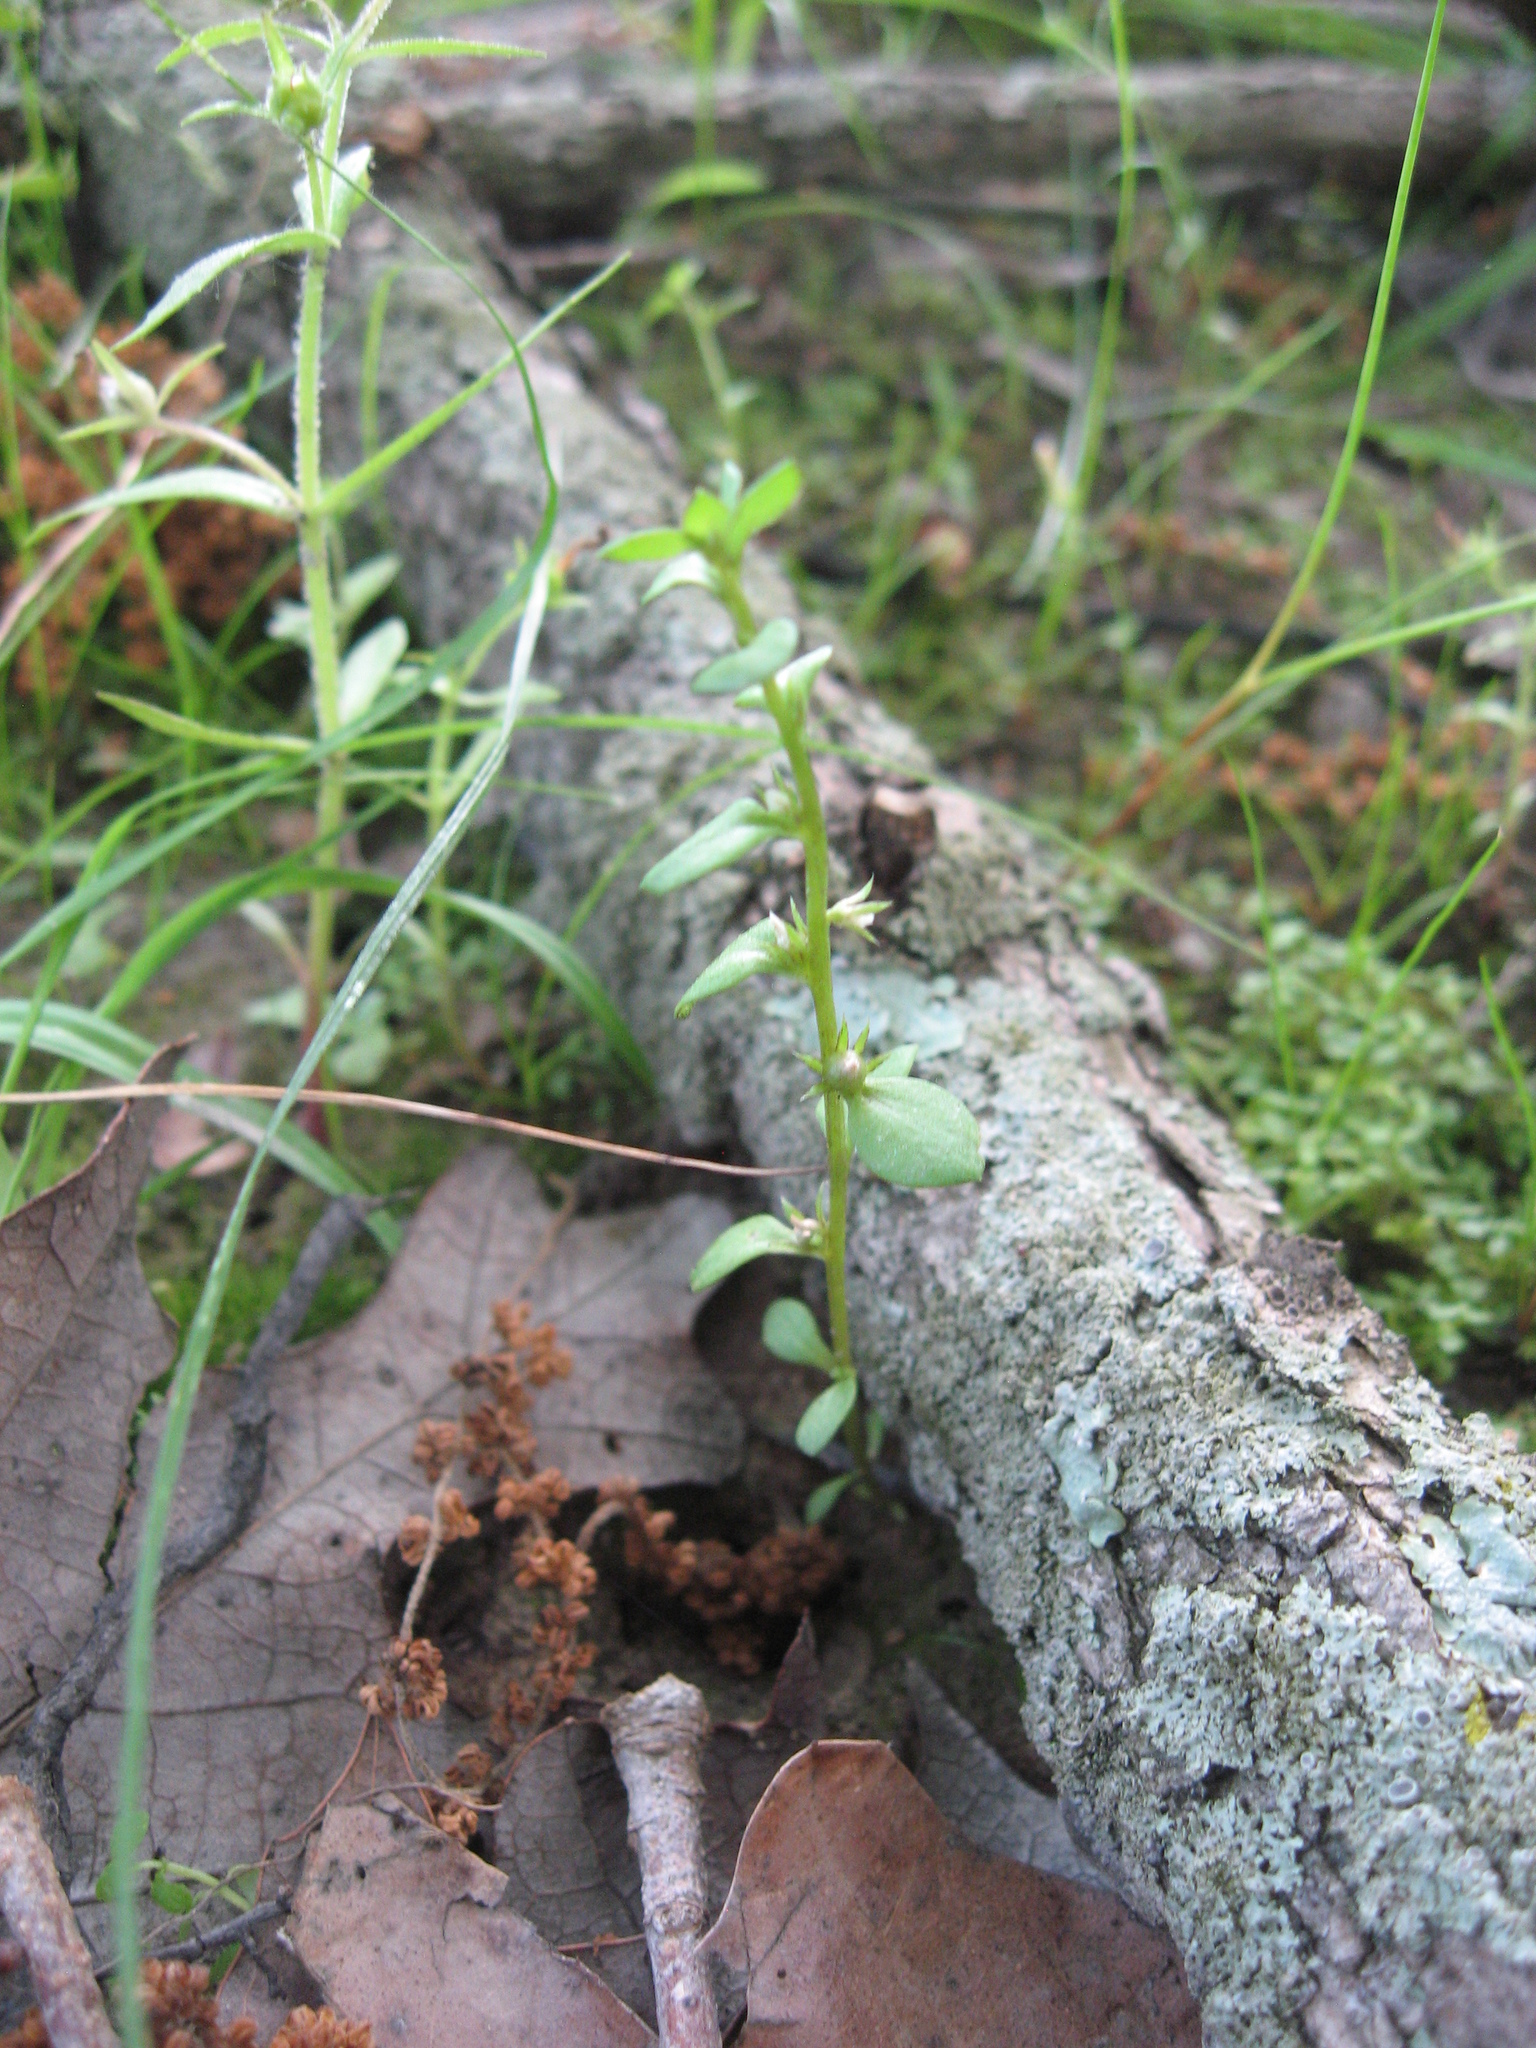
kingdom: Plantae
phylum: Tracheophyta
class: Magnoliopsida
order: Ericales
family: Primulaceae
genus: Lysimachia
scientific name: Lysimachia minima
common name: Chaffweed
